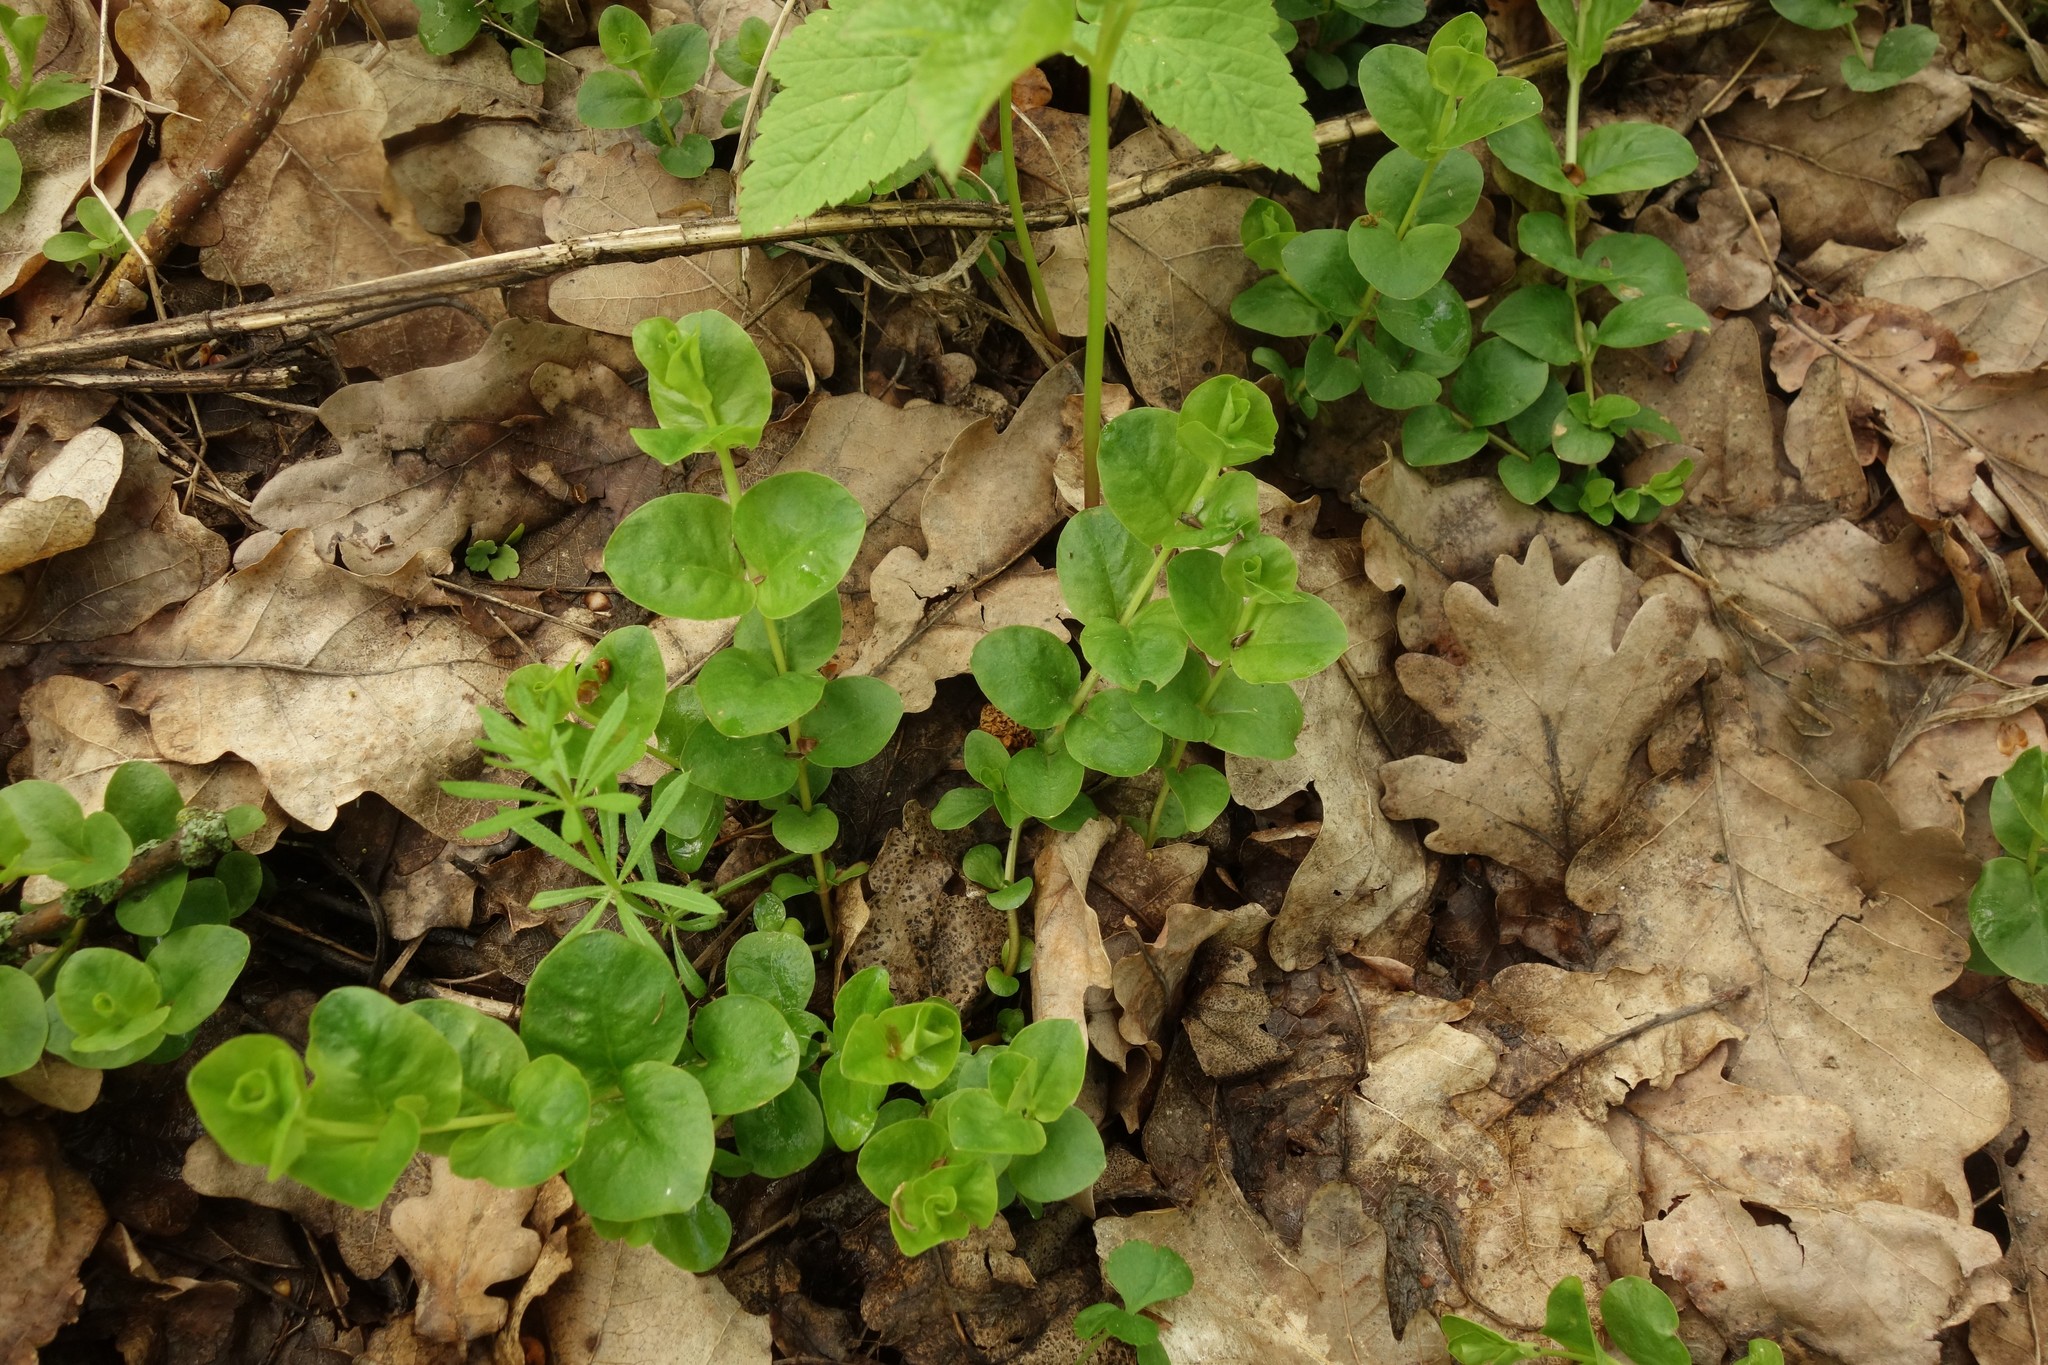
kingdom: Plantae
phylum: Tracheophyta
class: Magnoliopsida
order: Ericales
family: Primulaceae
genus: Lysimachia
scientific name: Lysimachia nummularia
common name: Moneywort
